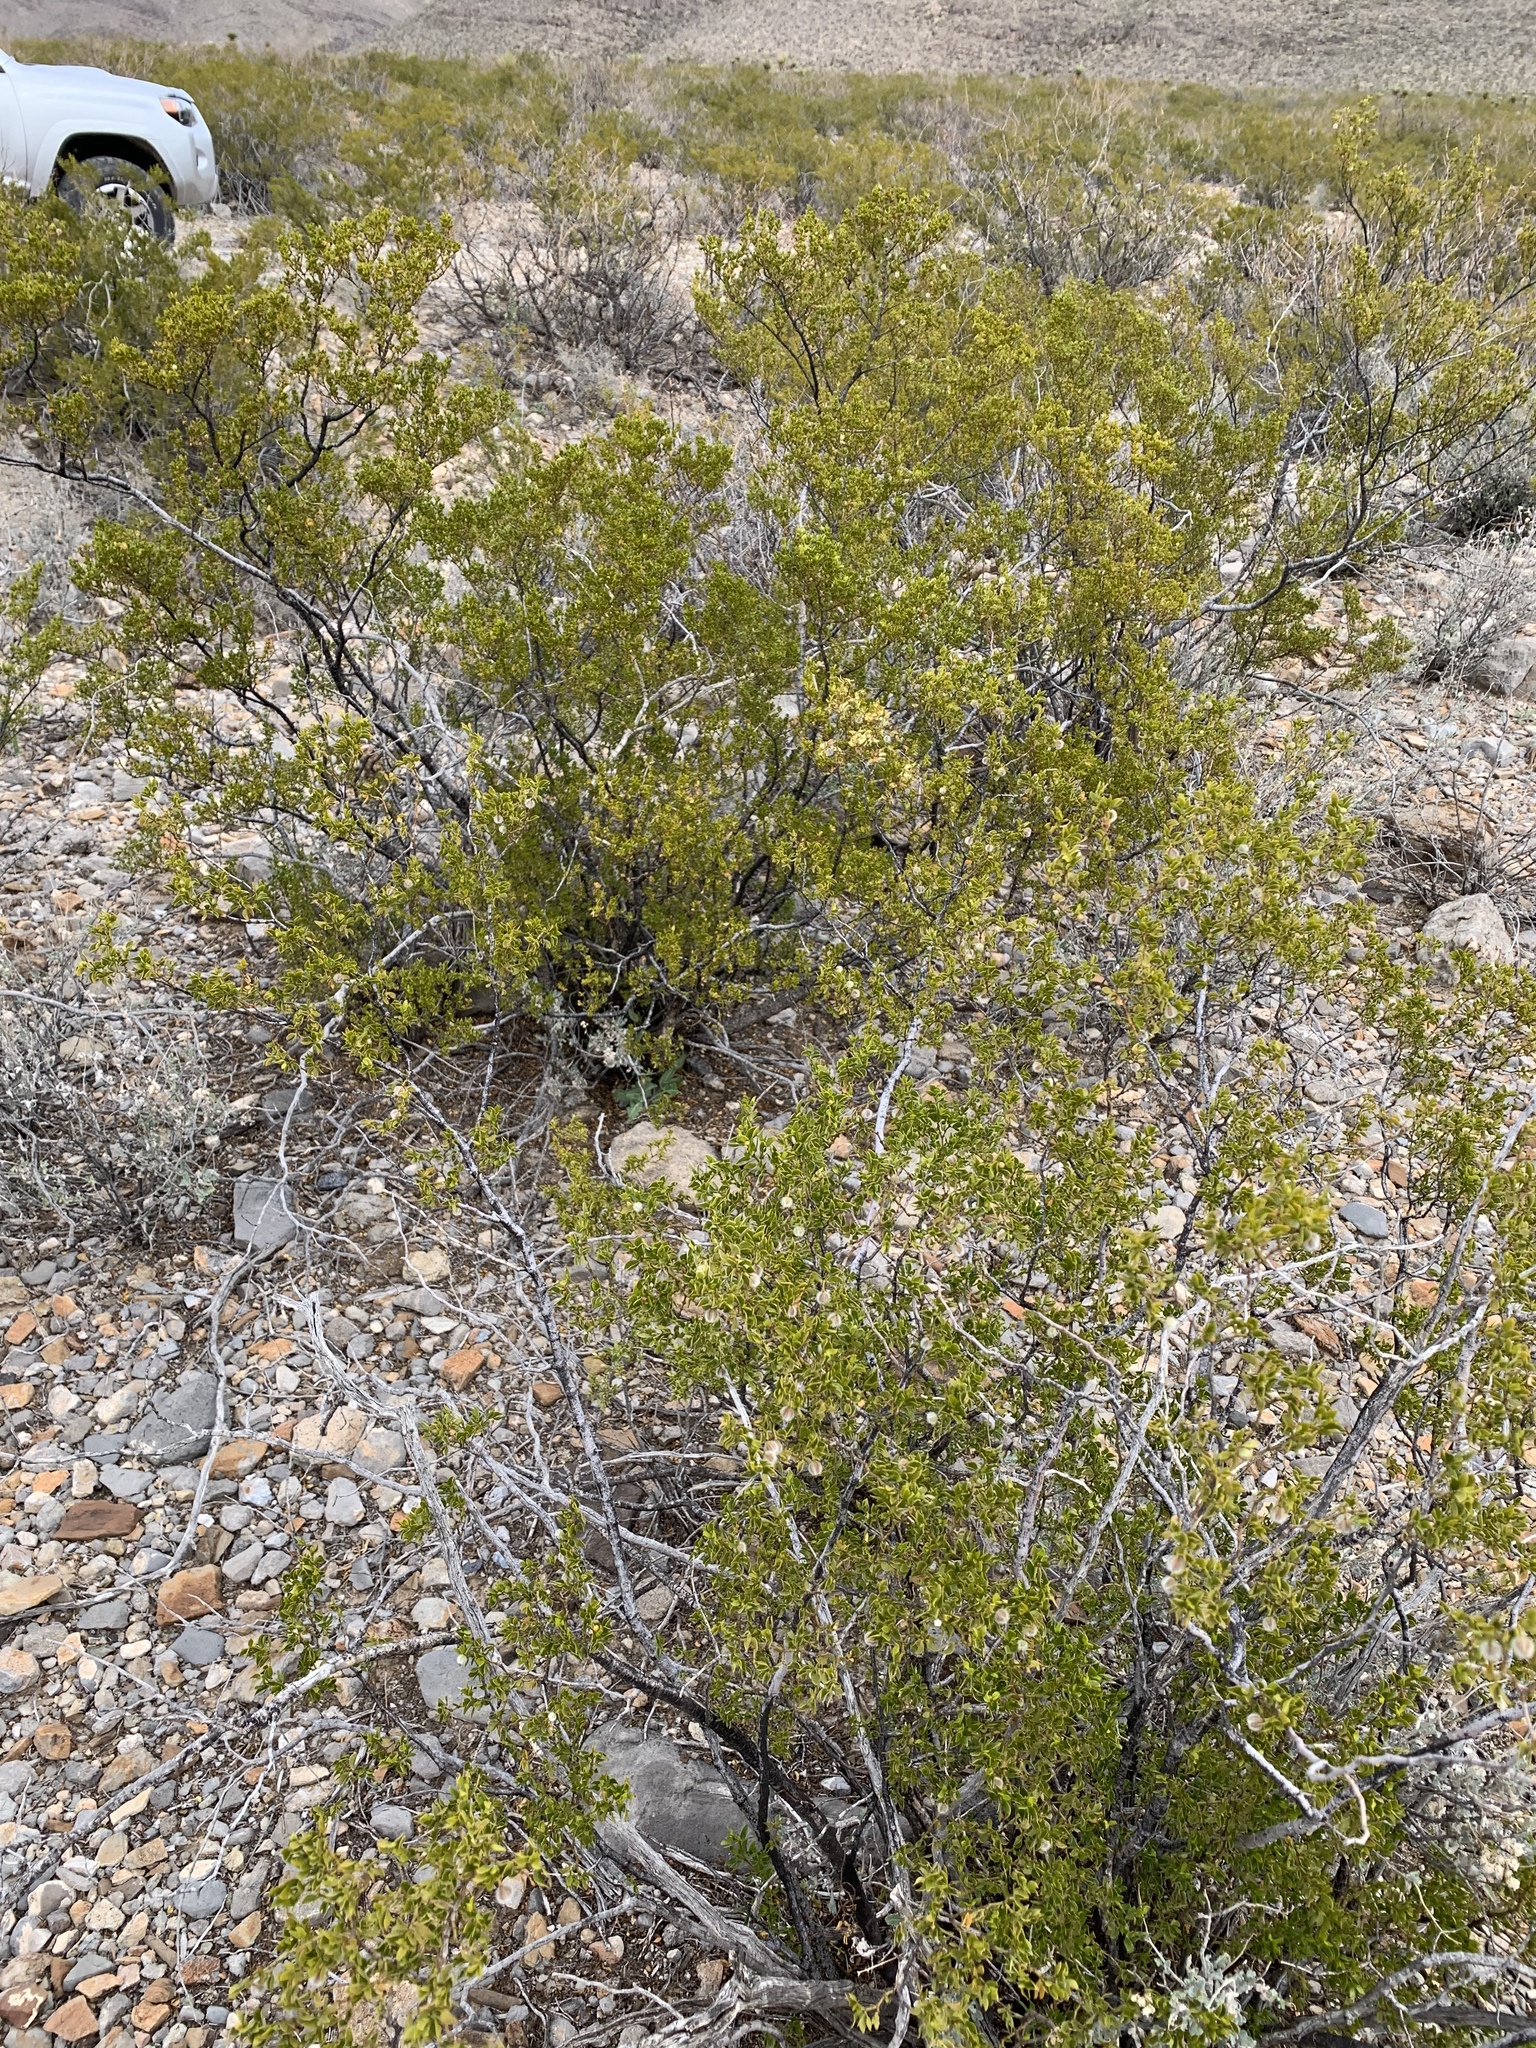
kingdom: Plantae
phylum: Tracheophyta
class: Magnoliopsida
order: Zygophyllales
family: Zygophyllaceae
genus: Larrea
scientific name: Larrea tridentata
